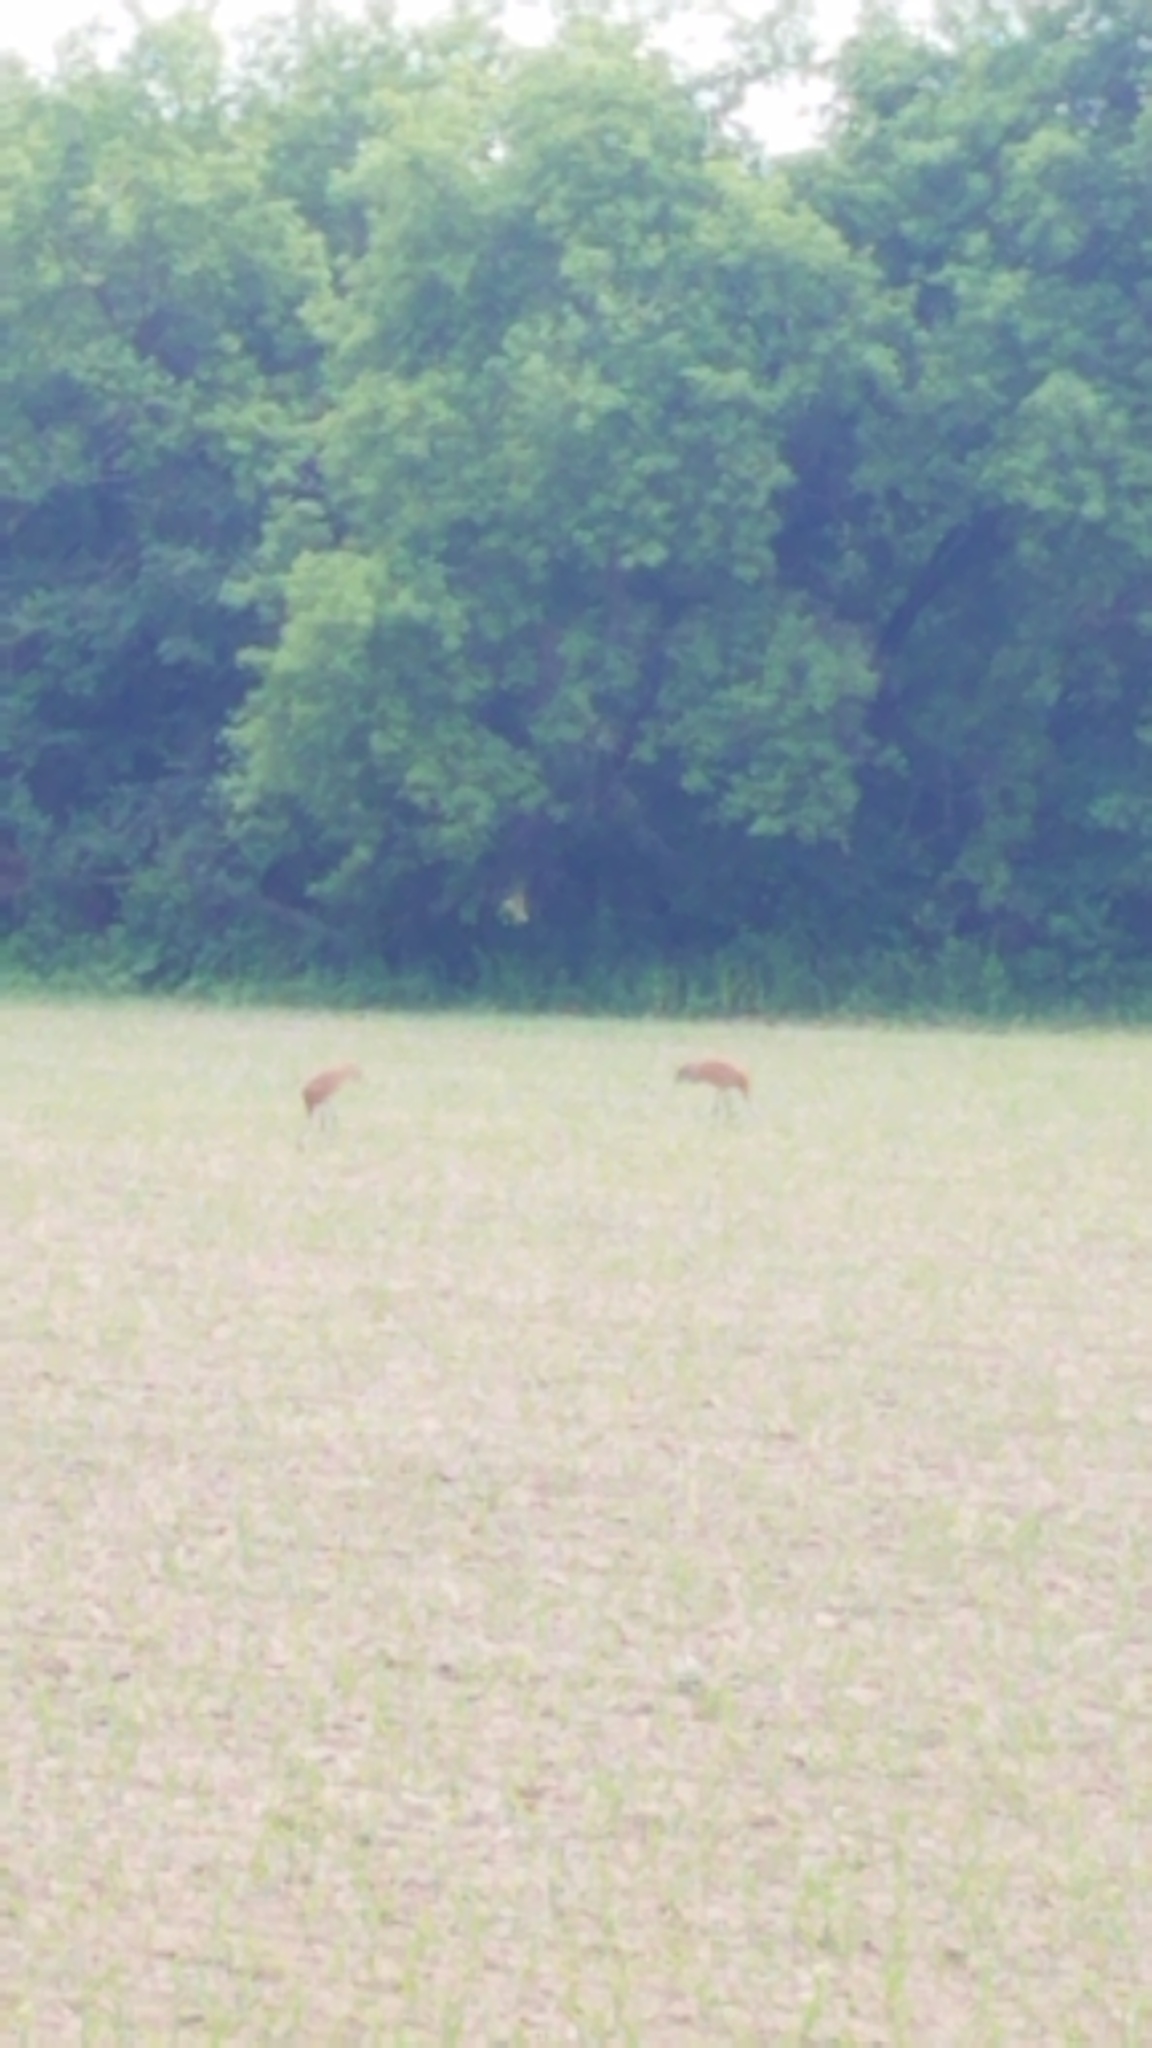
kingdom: Animalia
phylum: Chordata
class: Aves
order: Gruiformes
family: Gruidae
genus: Grus
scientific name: Grus canadensis
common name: Sandhill crane
